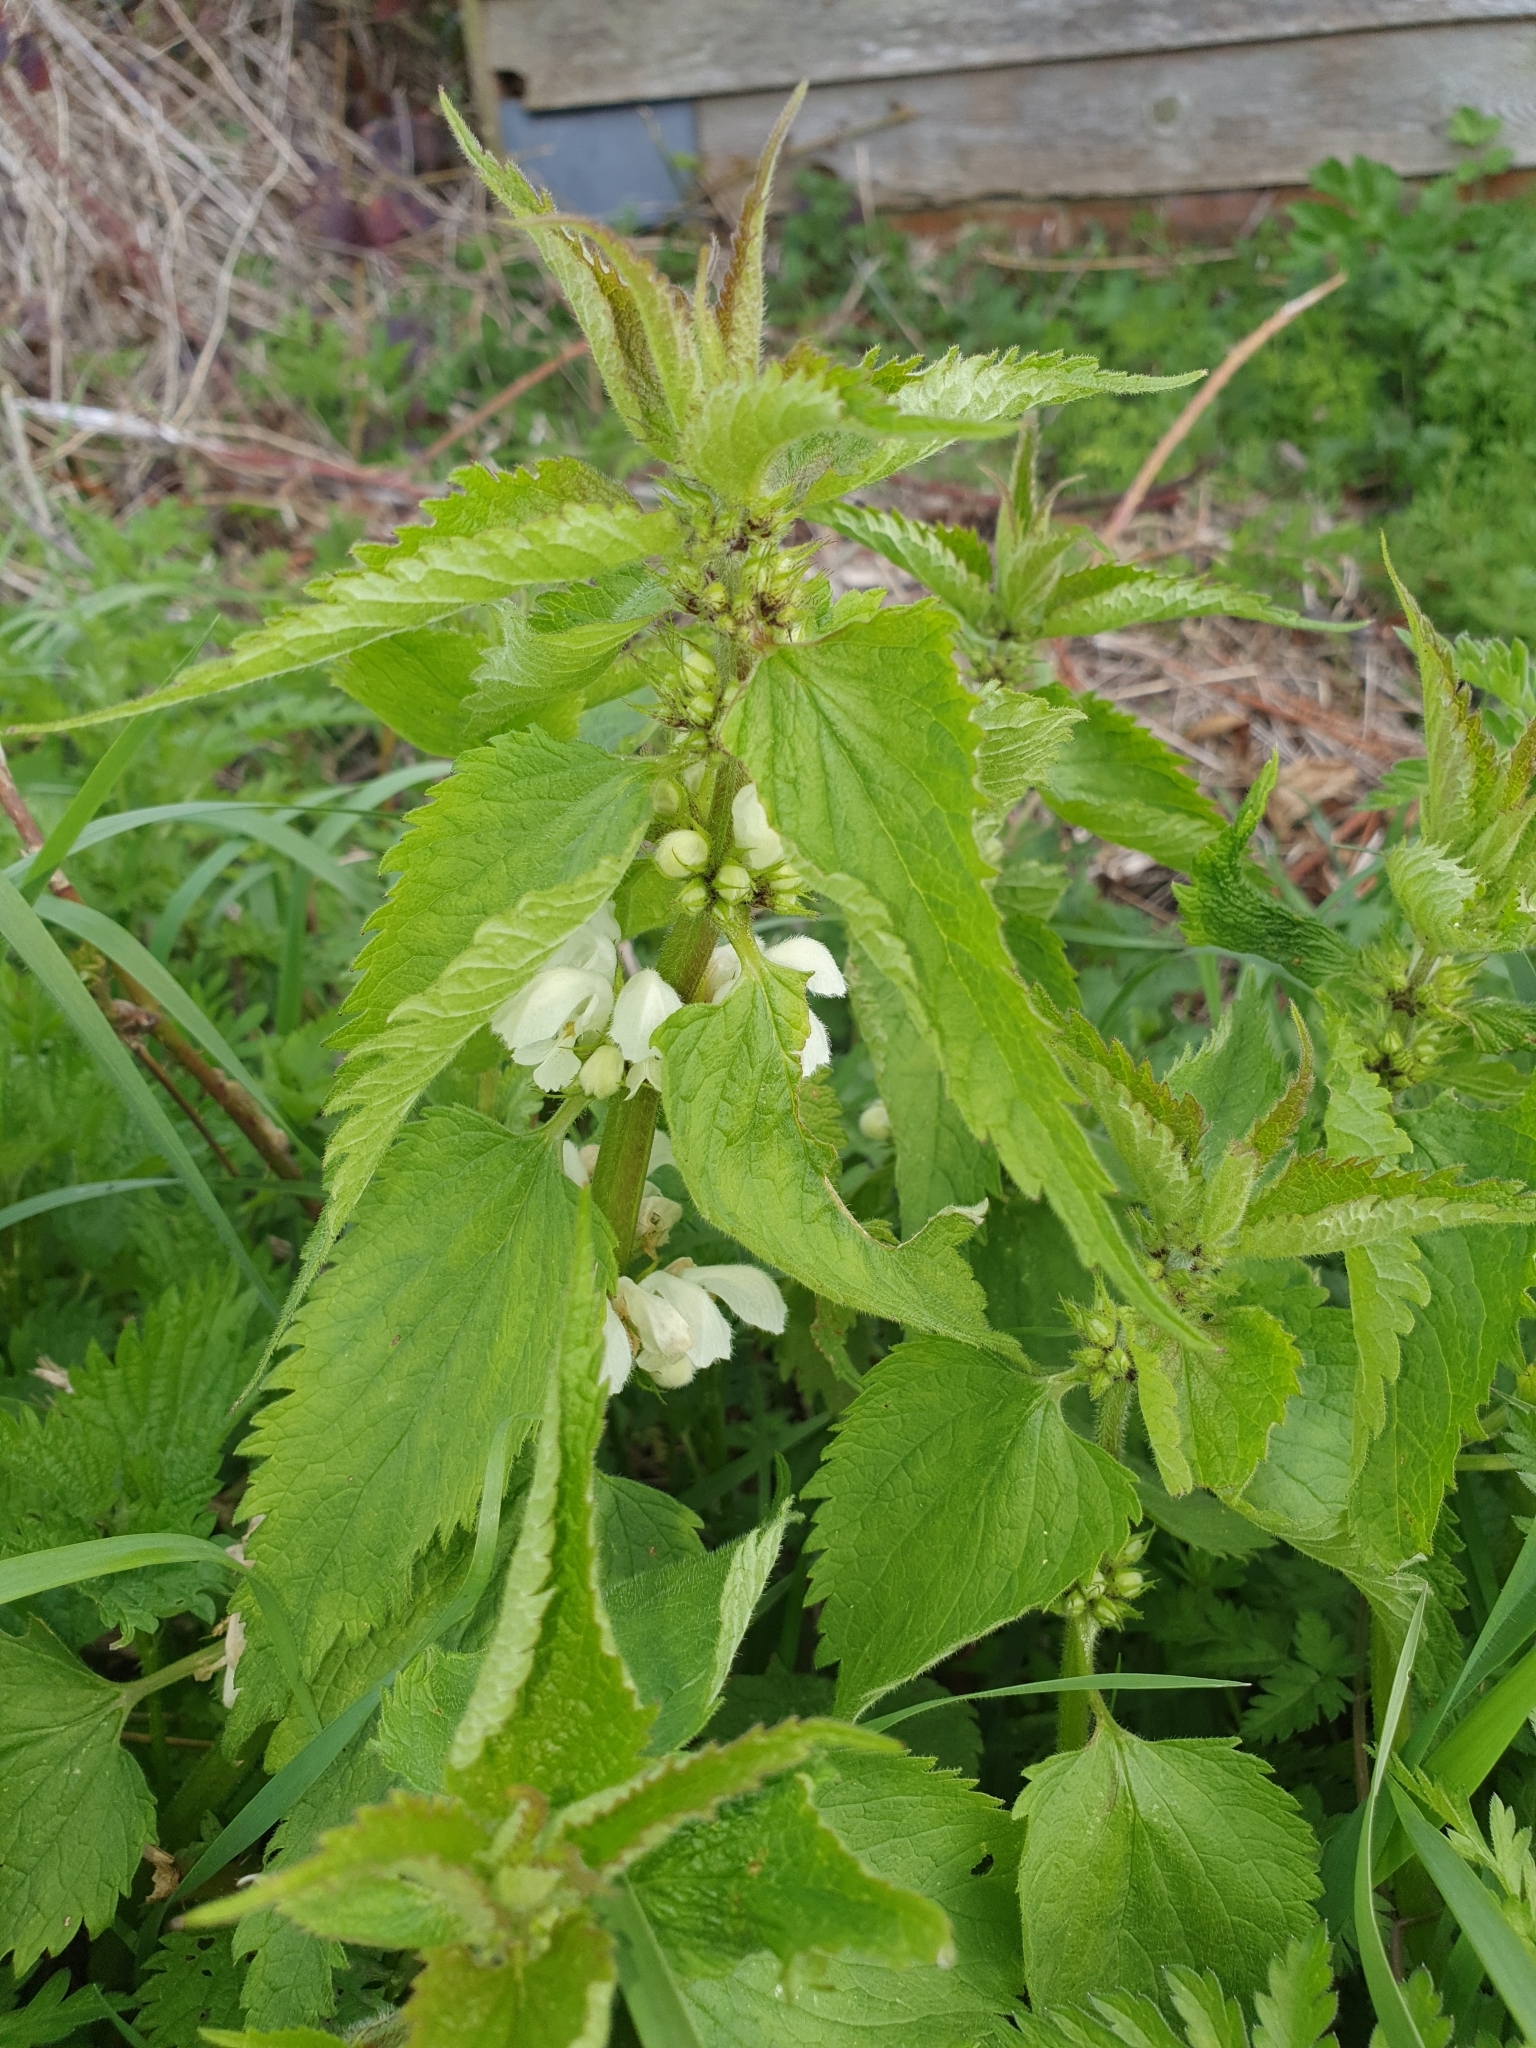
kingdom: Plantae
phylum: Tracheophyta
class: Magnoliopsida
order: Lamiales
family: Lamiaceae
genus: Lamium
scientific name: Lamium album
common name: White dead-nettle
